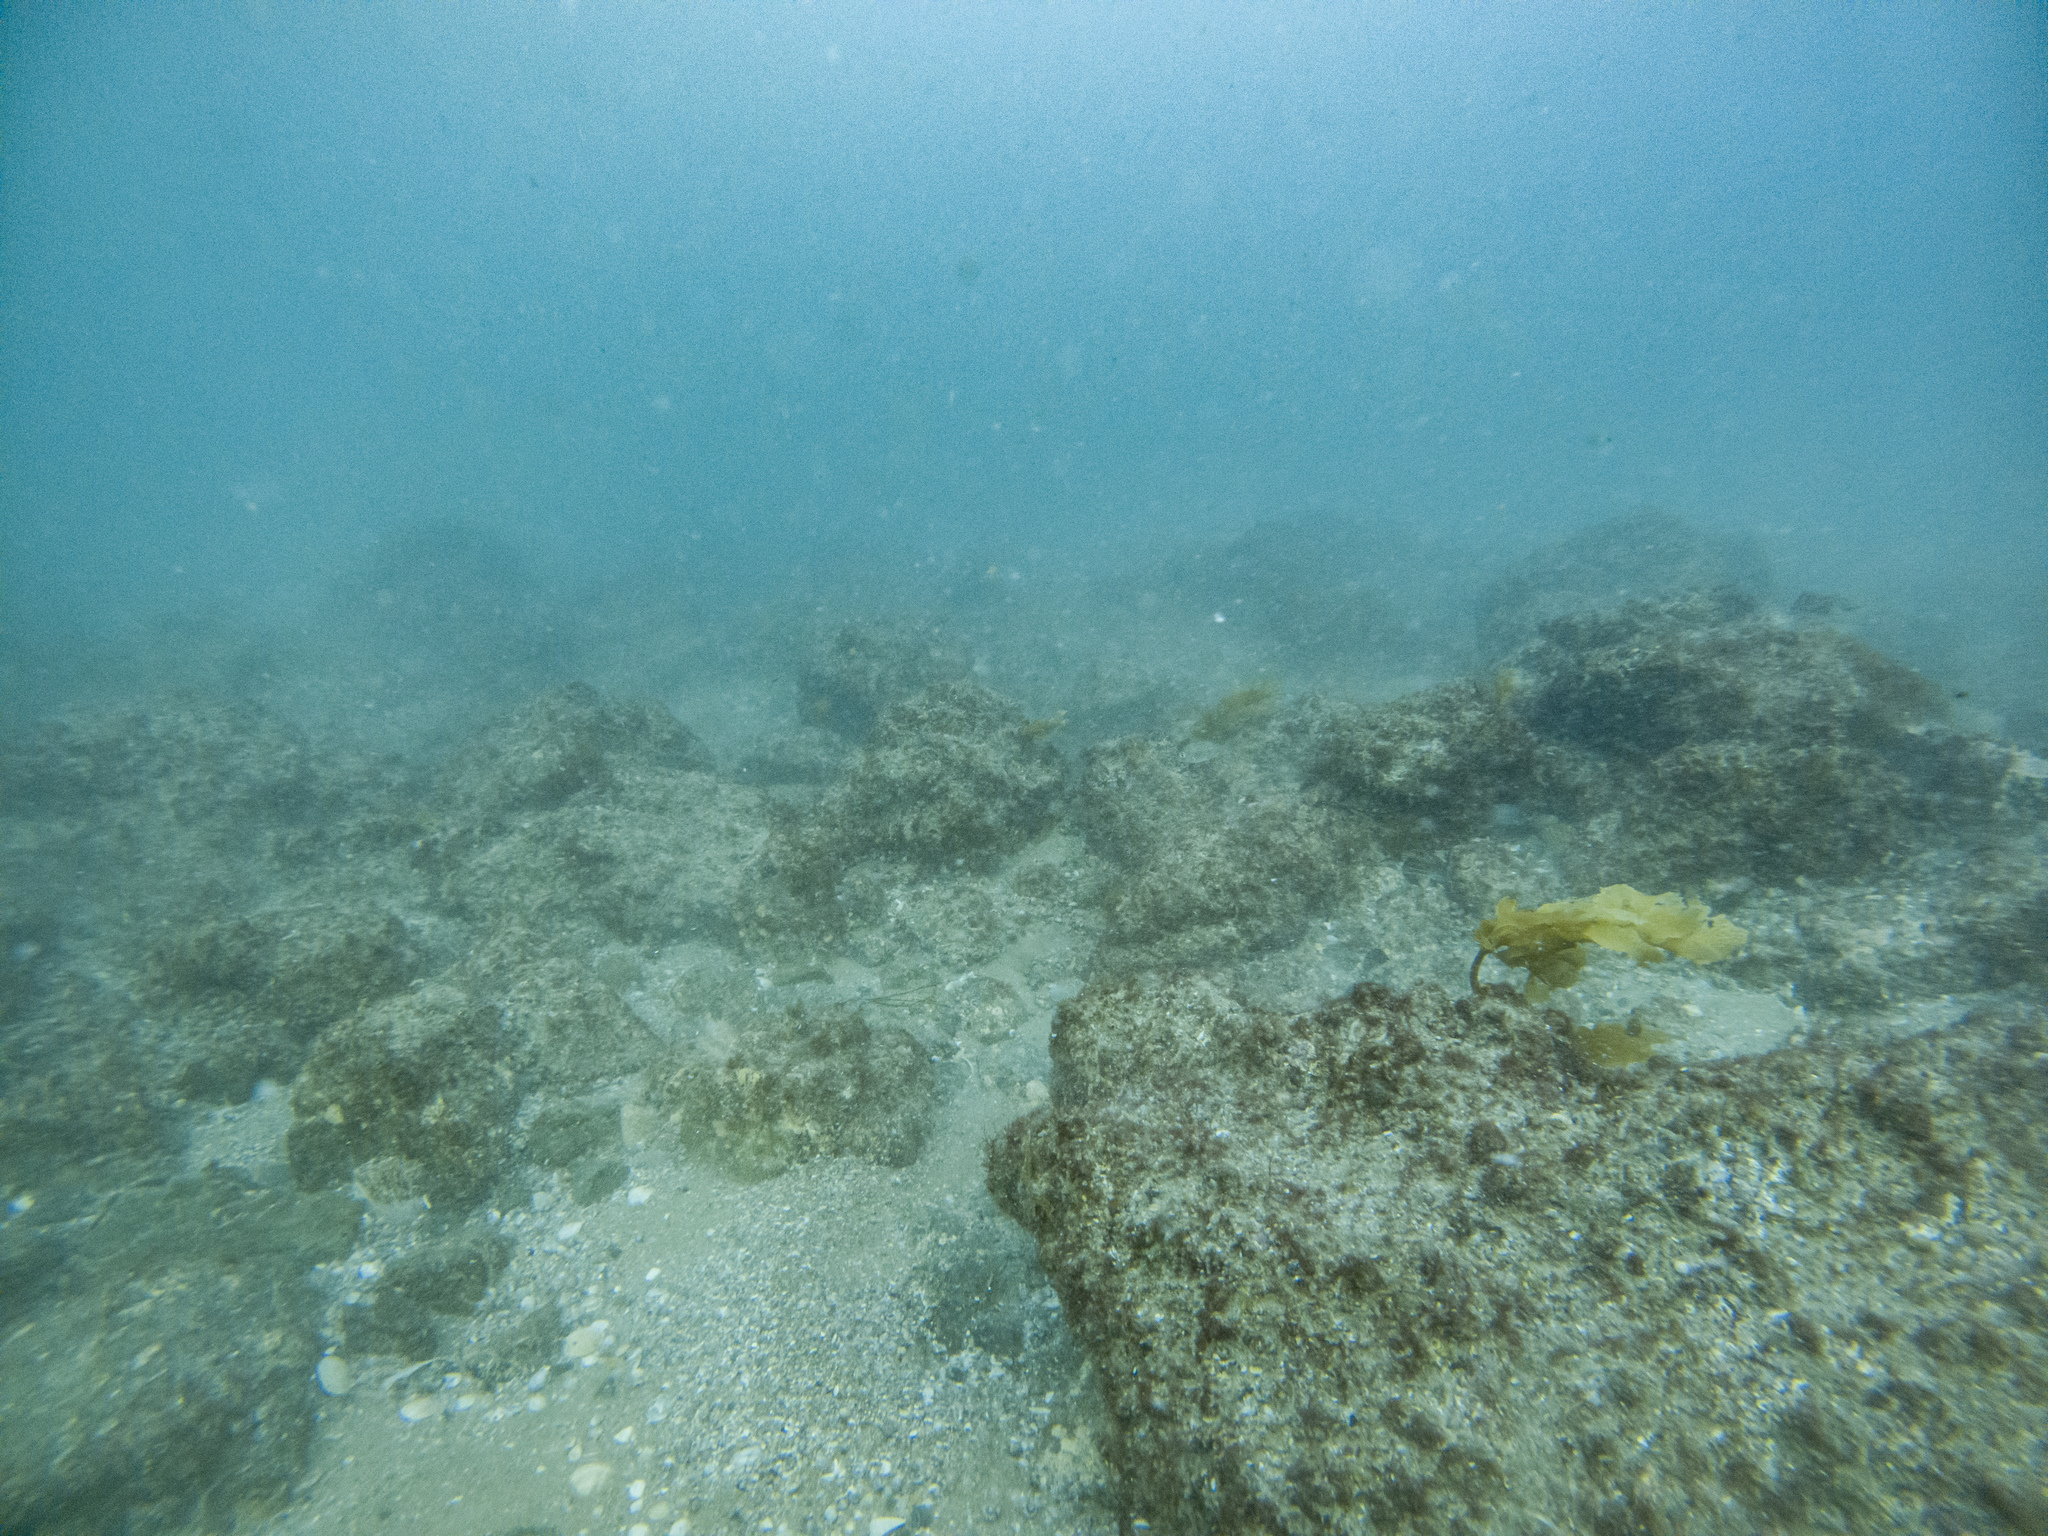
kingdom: Chromista
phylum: Ochrophyta
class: Phaeophyceae
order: Laminariales
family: Lessoniaceae
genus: Ecklonia
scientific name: Ecklonia radiata
